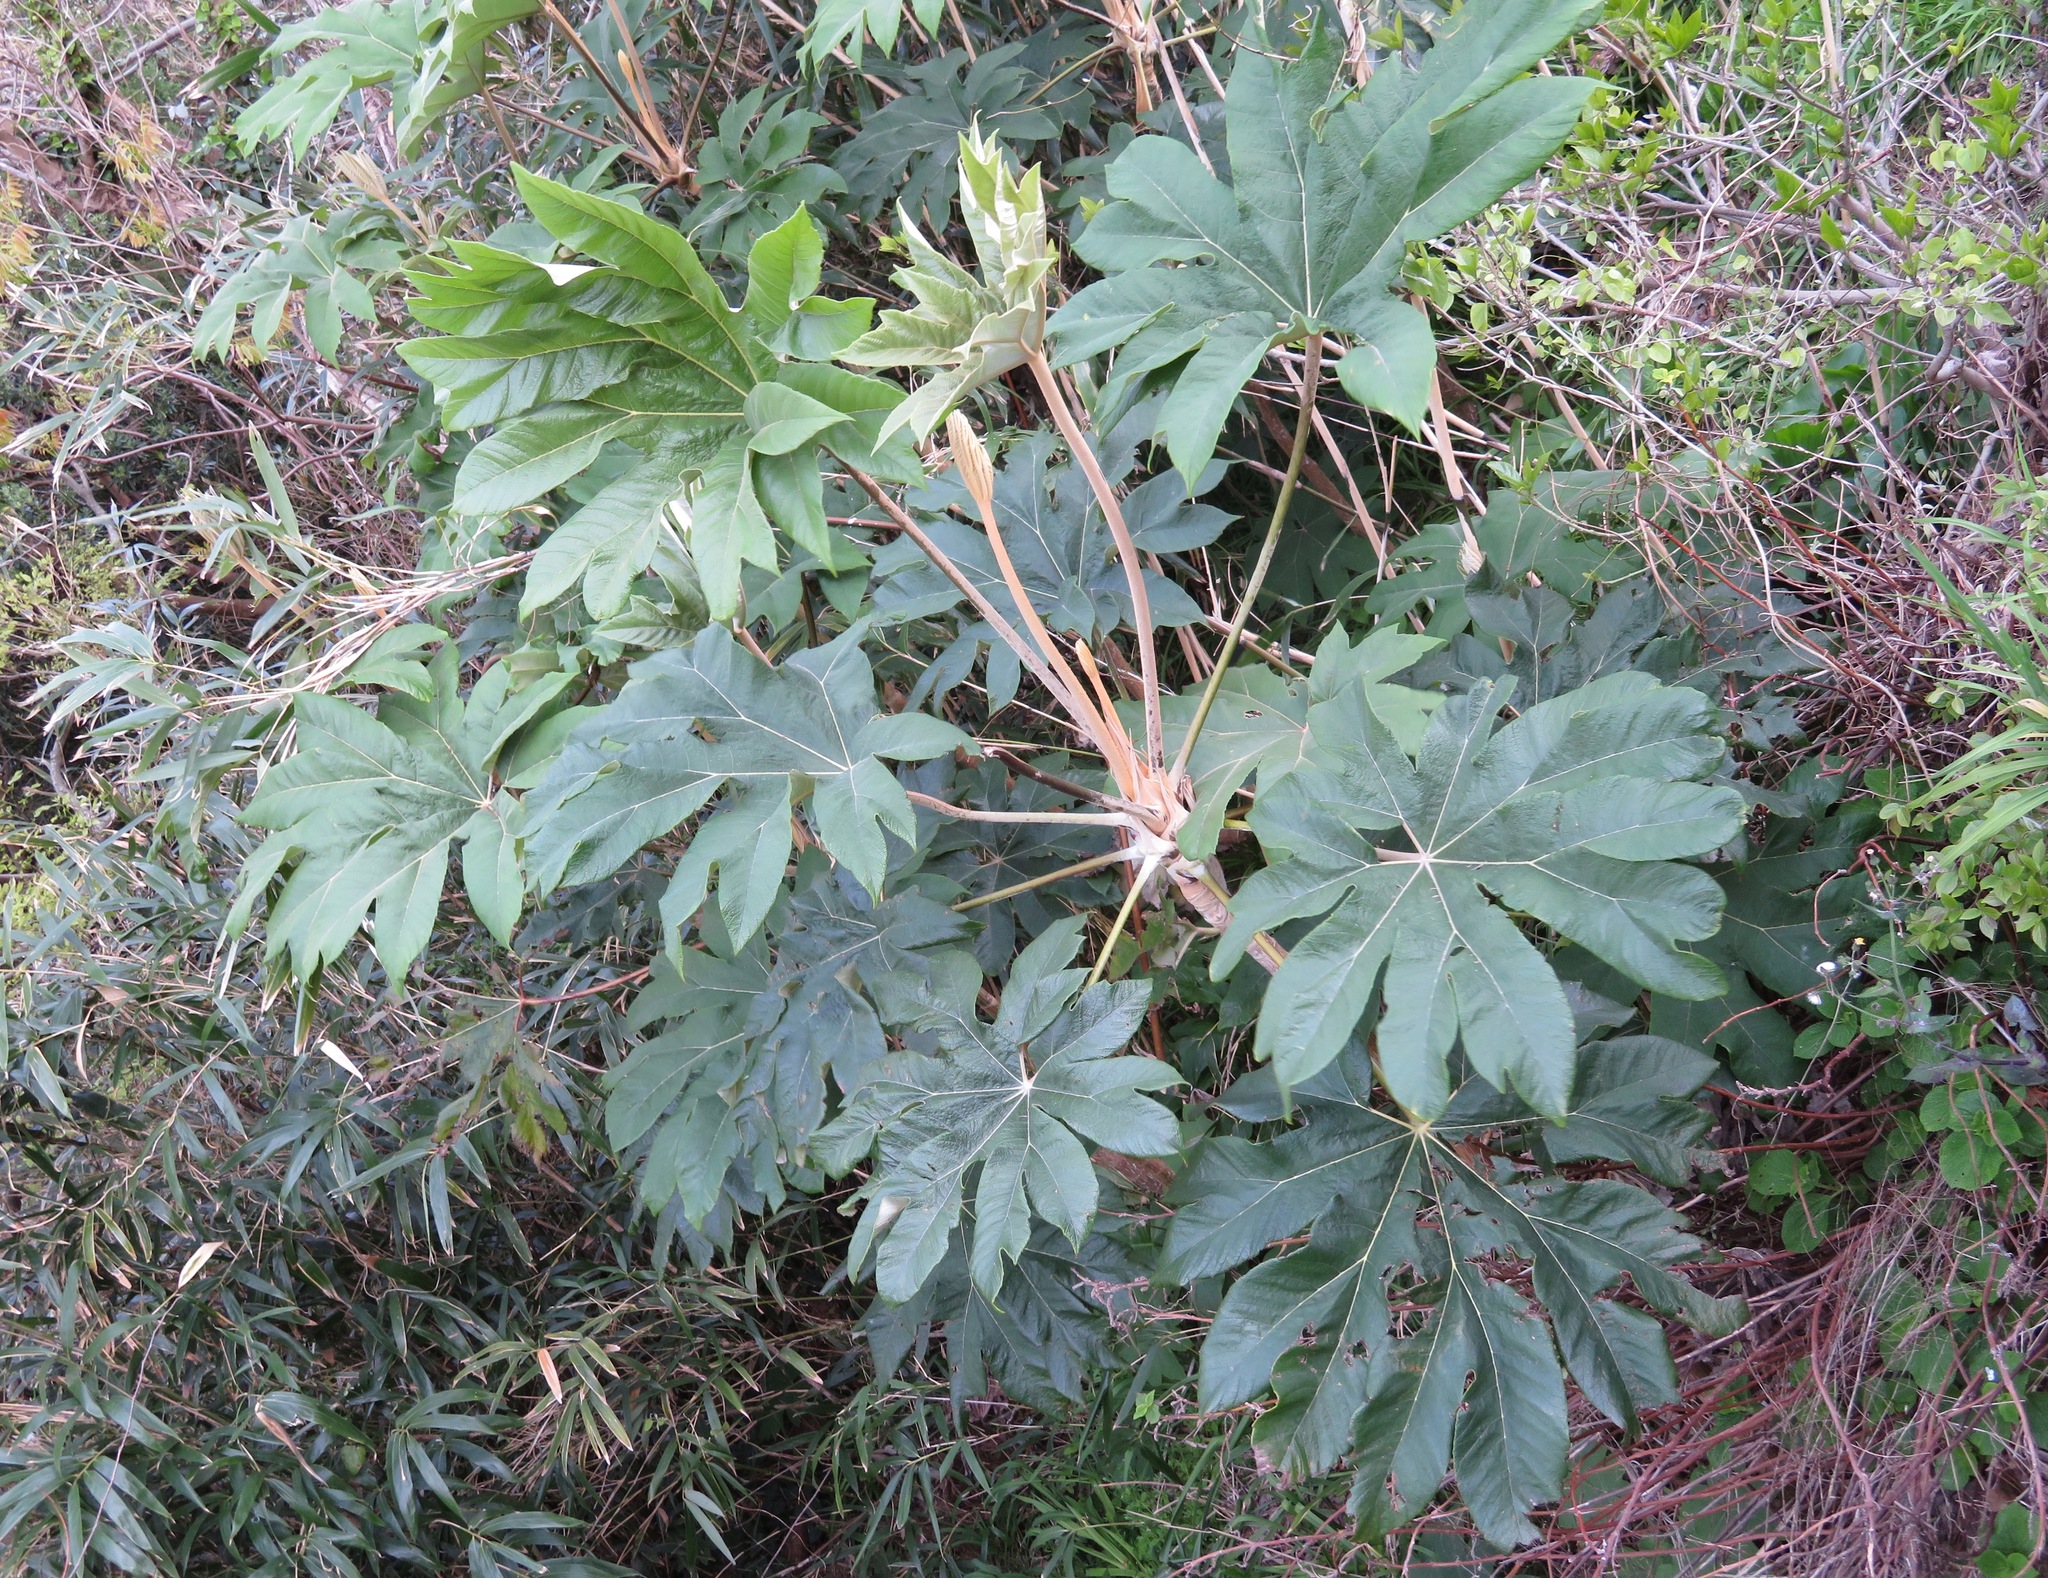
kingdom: Plantae
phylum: Tracheophyta
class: Magnoliopsida
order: Apiales
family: Araliaceae
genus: Tetrapanax
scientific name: Tetrapanax papyrifer
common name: Rice-paper plant
